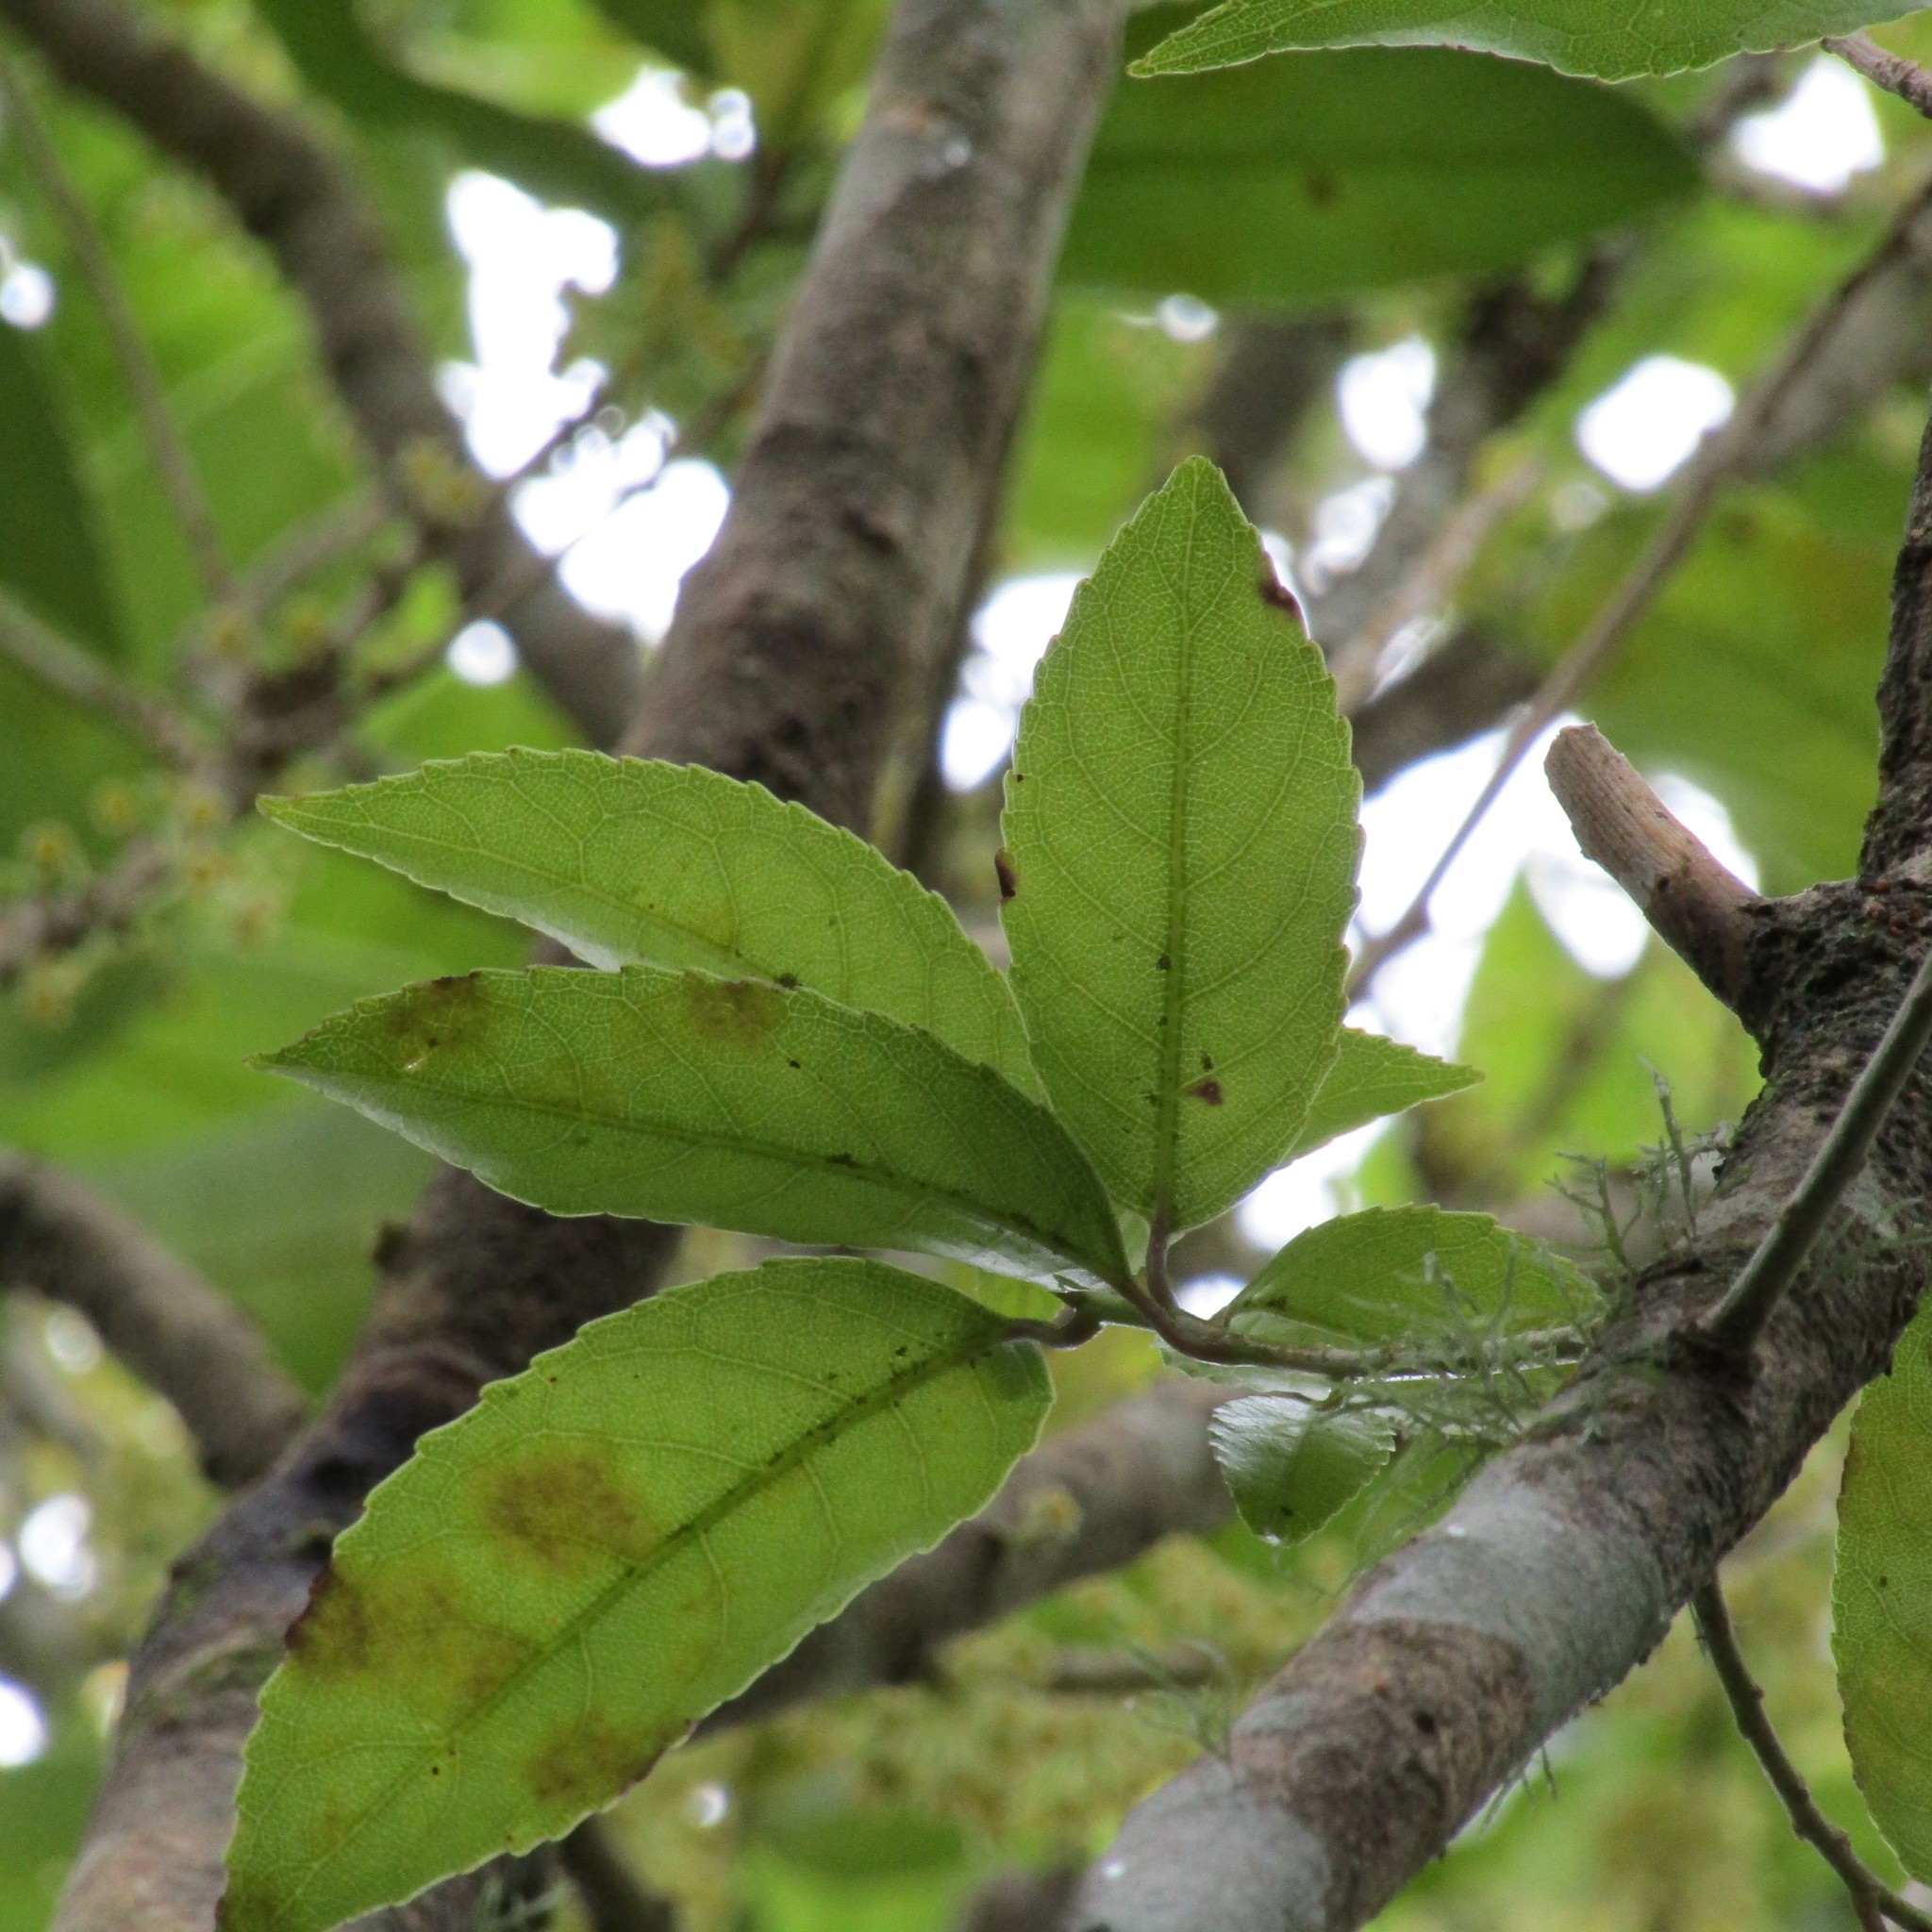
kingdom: Plantae
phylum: Tracheophyta
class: Magnoliopsida
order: Malpighiales
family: Violaceae
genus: Melicytus
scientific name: Melicytus ramiflorus
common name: Mahoe
